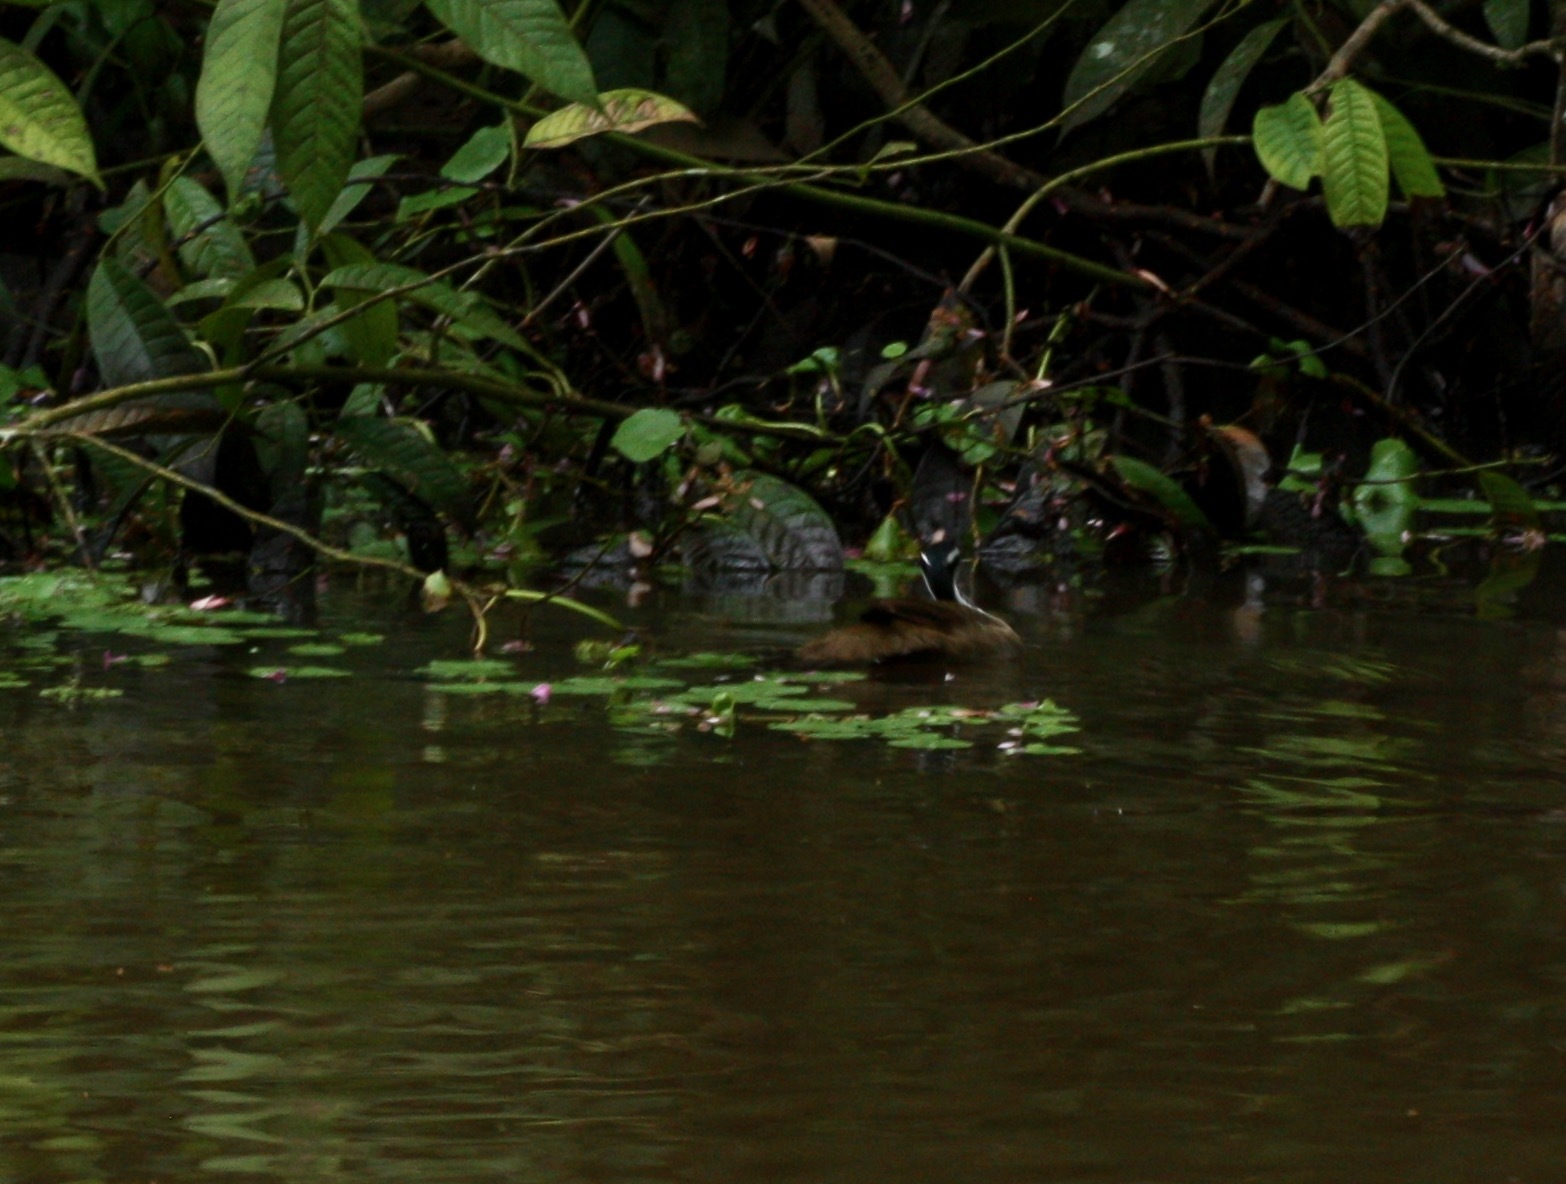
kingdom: Animalia
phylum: Chordata
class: Aves
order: Gruiformes
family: Heliornithidae
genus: Heliornis
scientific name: Heliornis fulica
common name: Sungrebe
